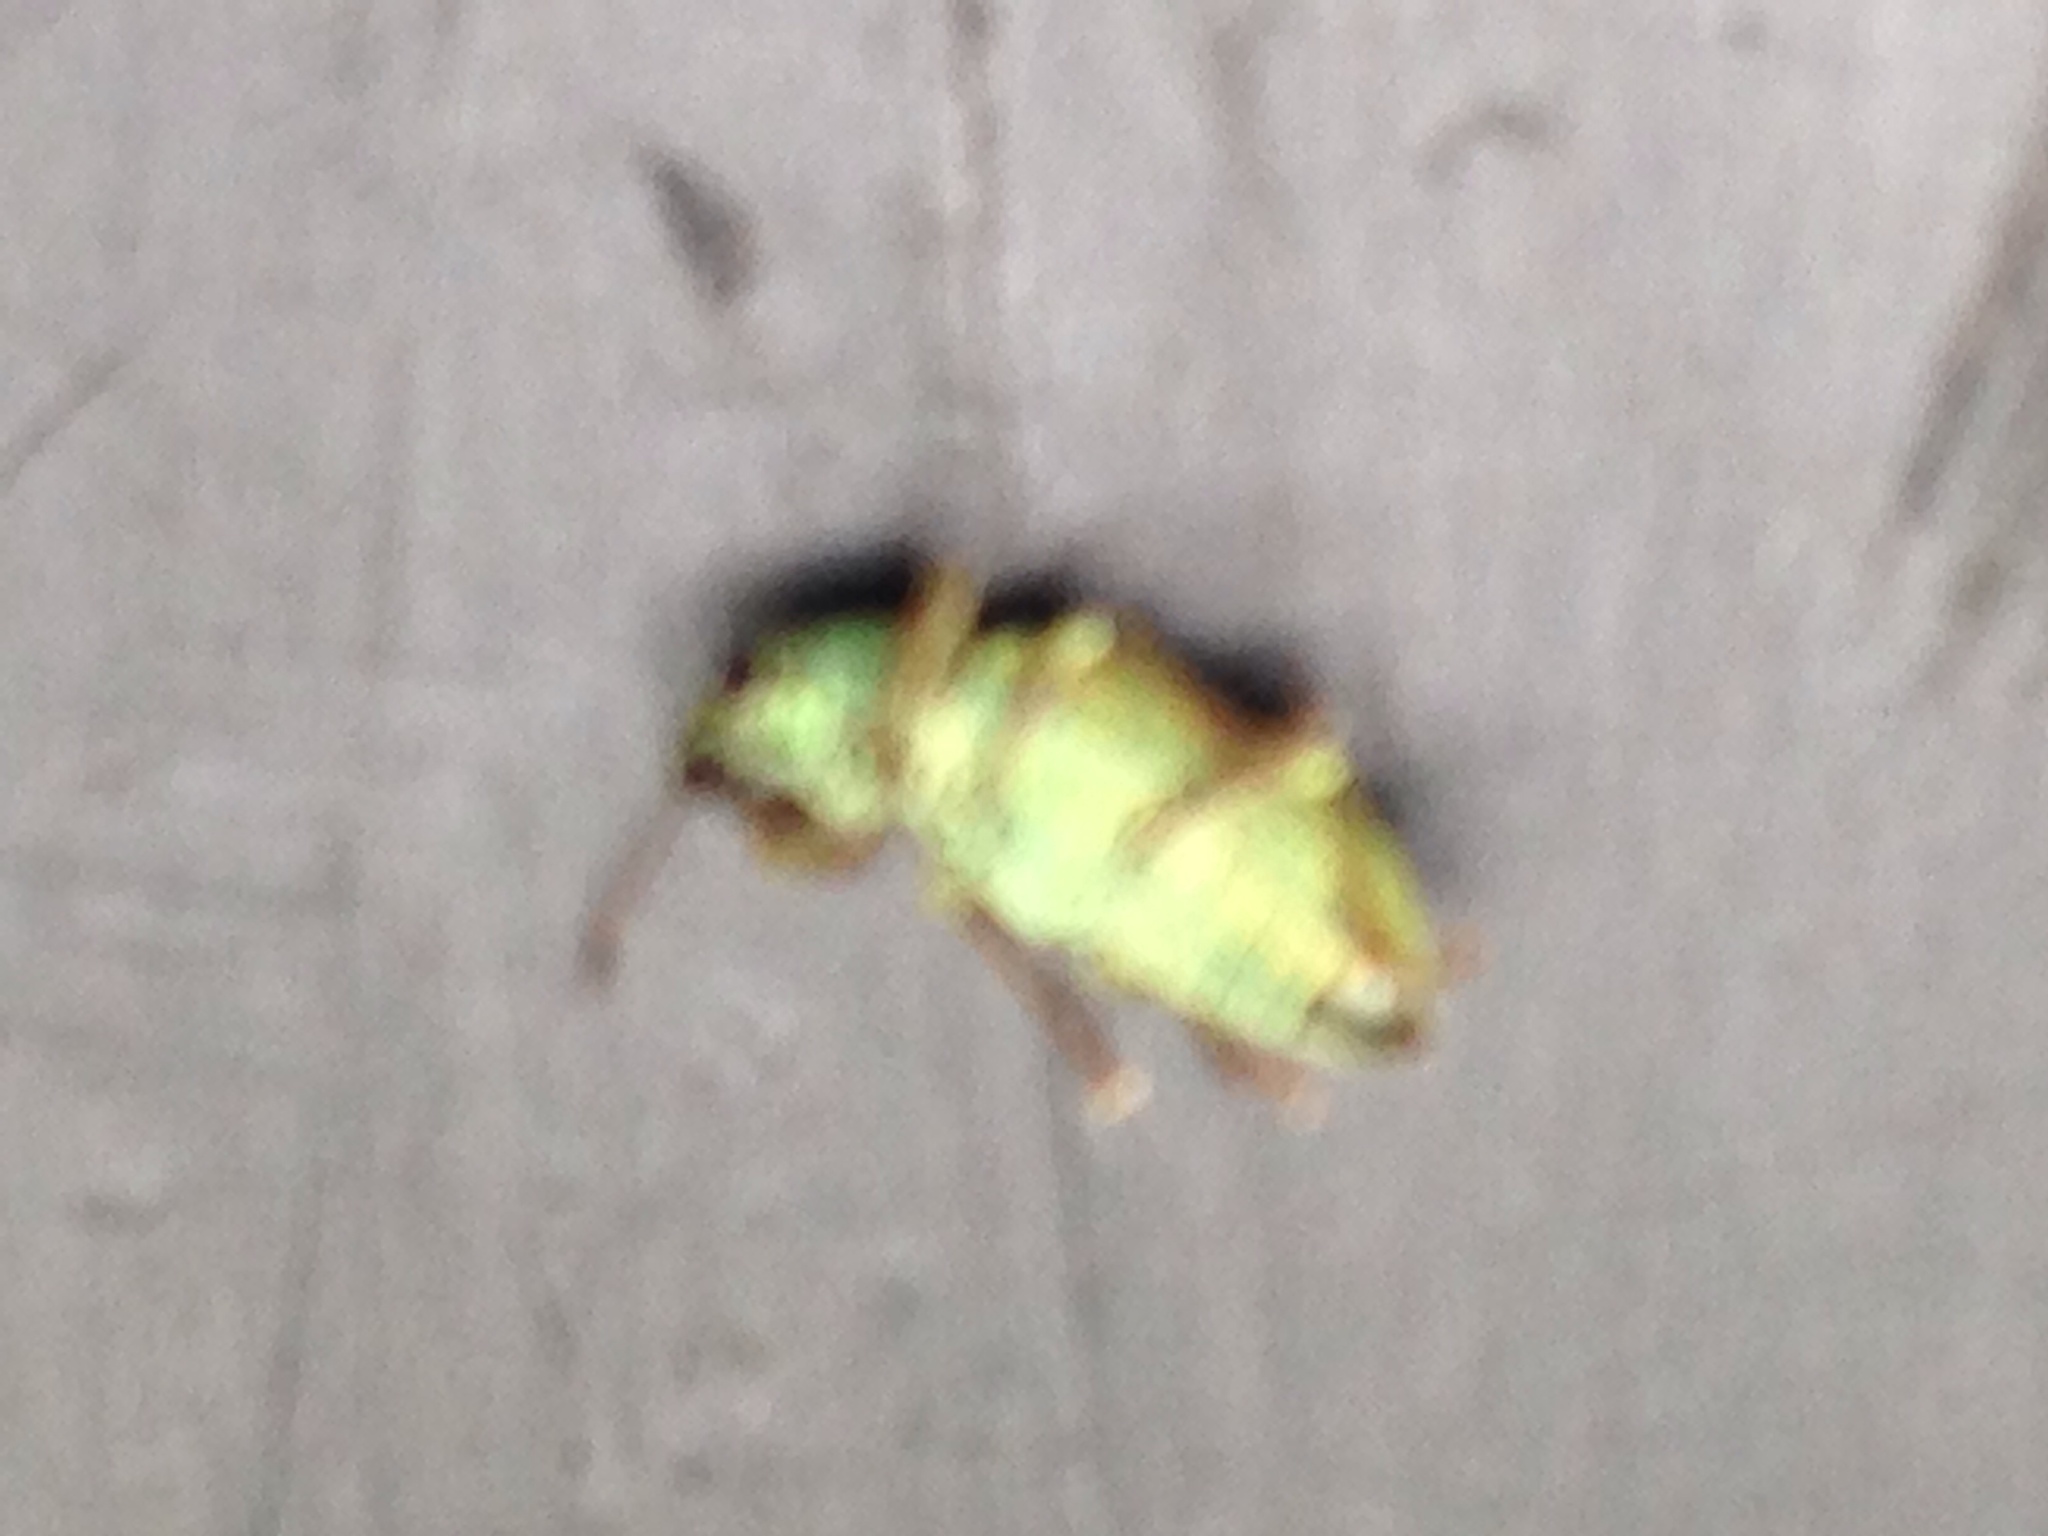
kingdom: Animalia
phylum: Arthropoda
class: Insecta
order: Coleoptera
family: Curculionidae
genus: Polydrusus
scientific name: Polydrusus formosus
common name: Weevil
